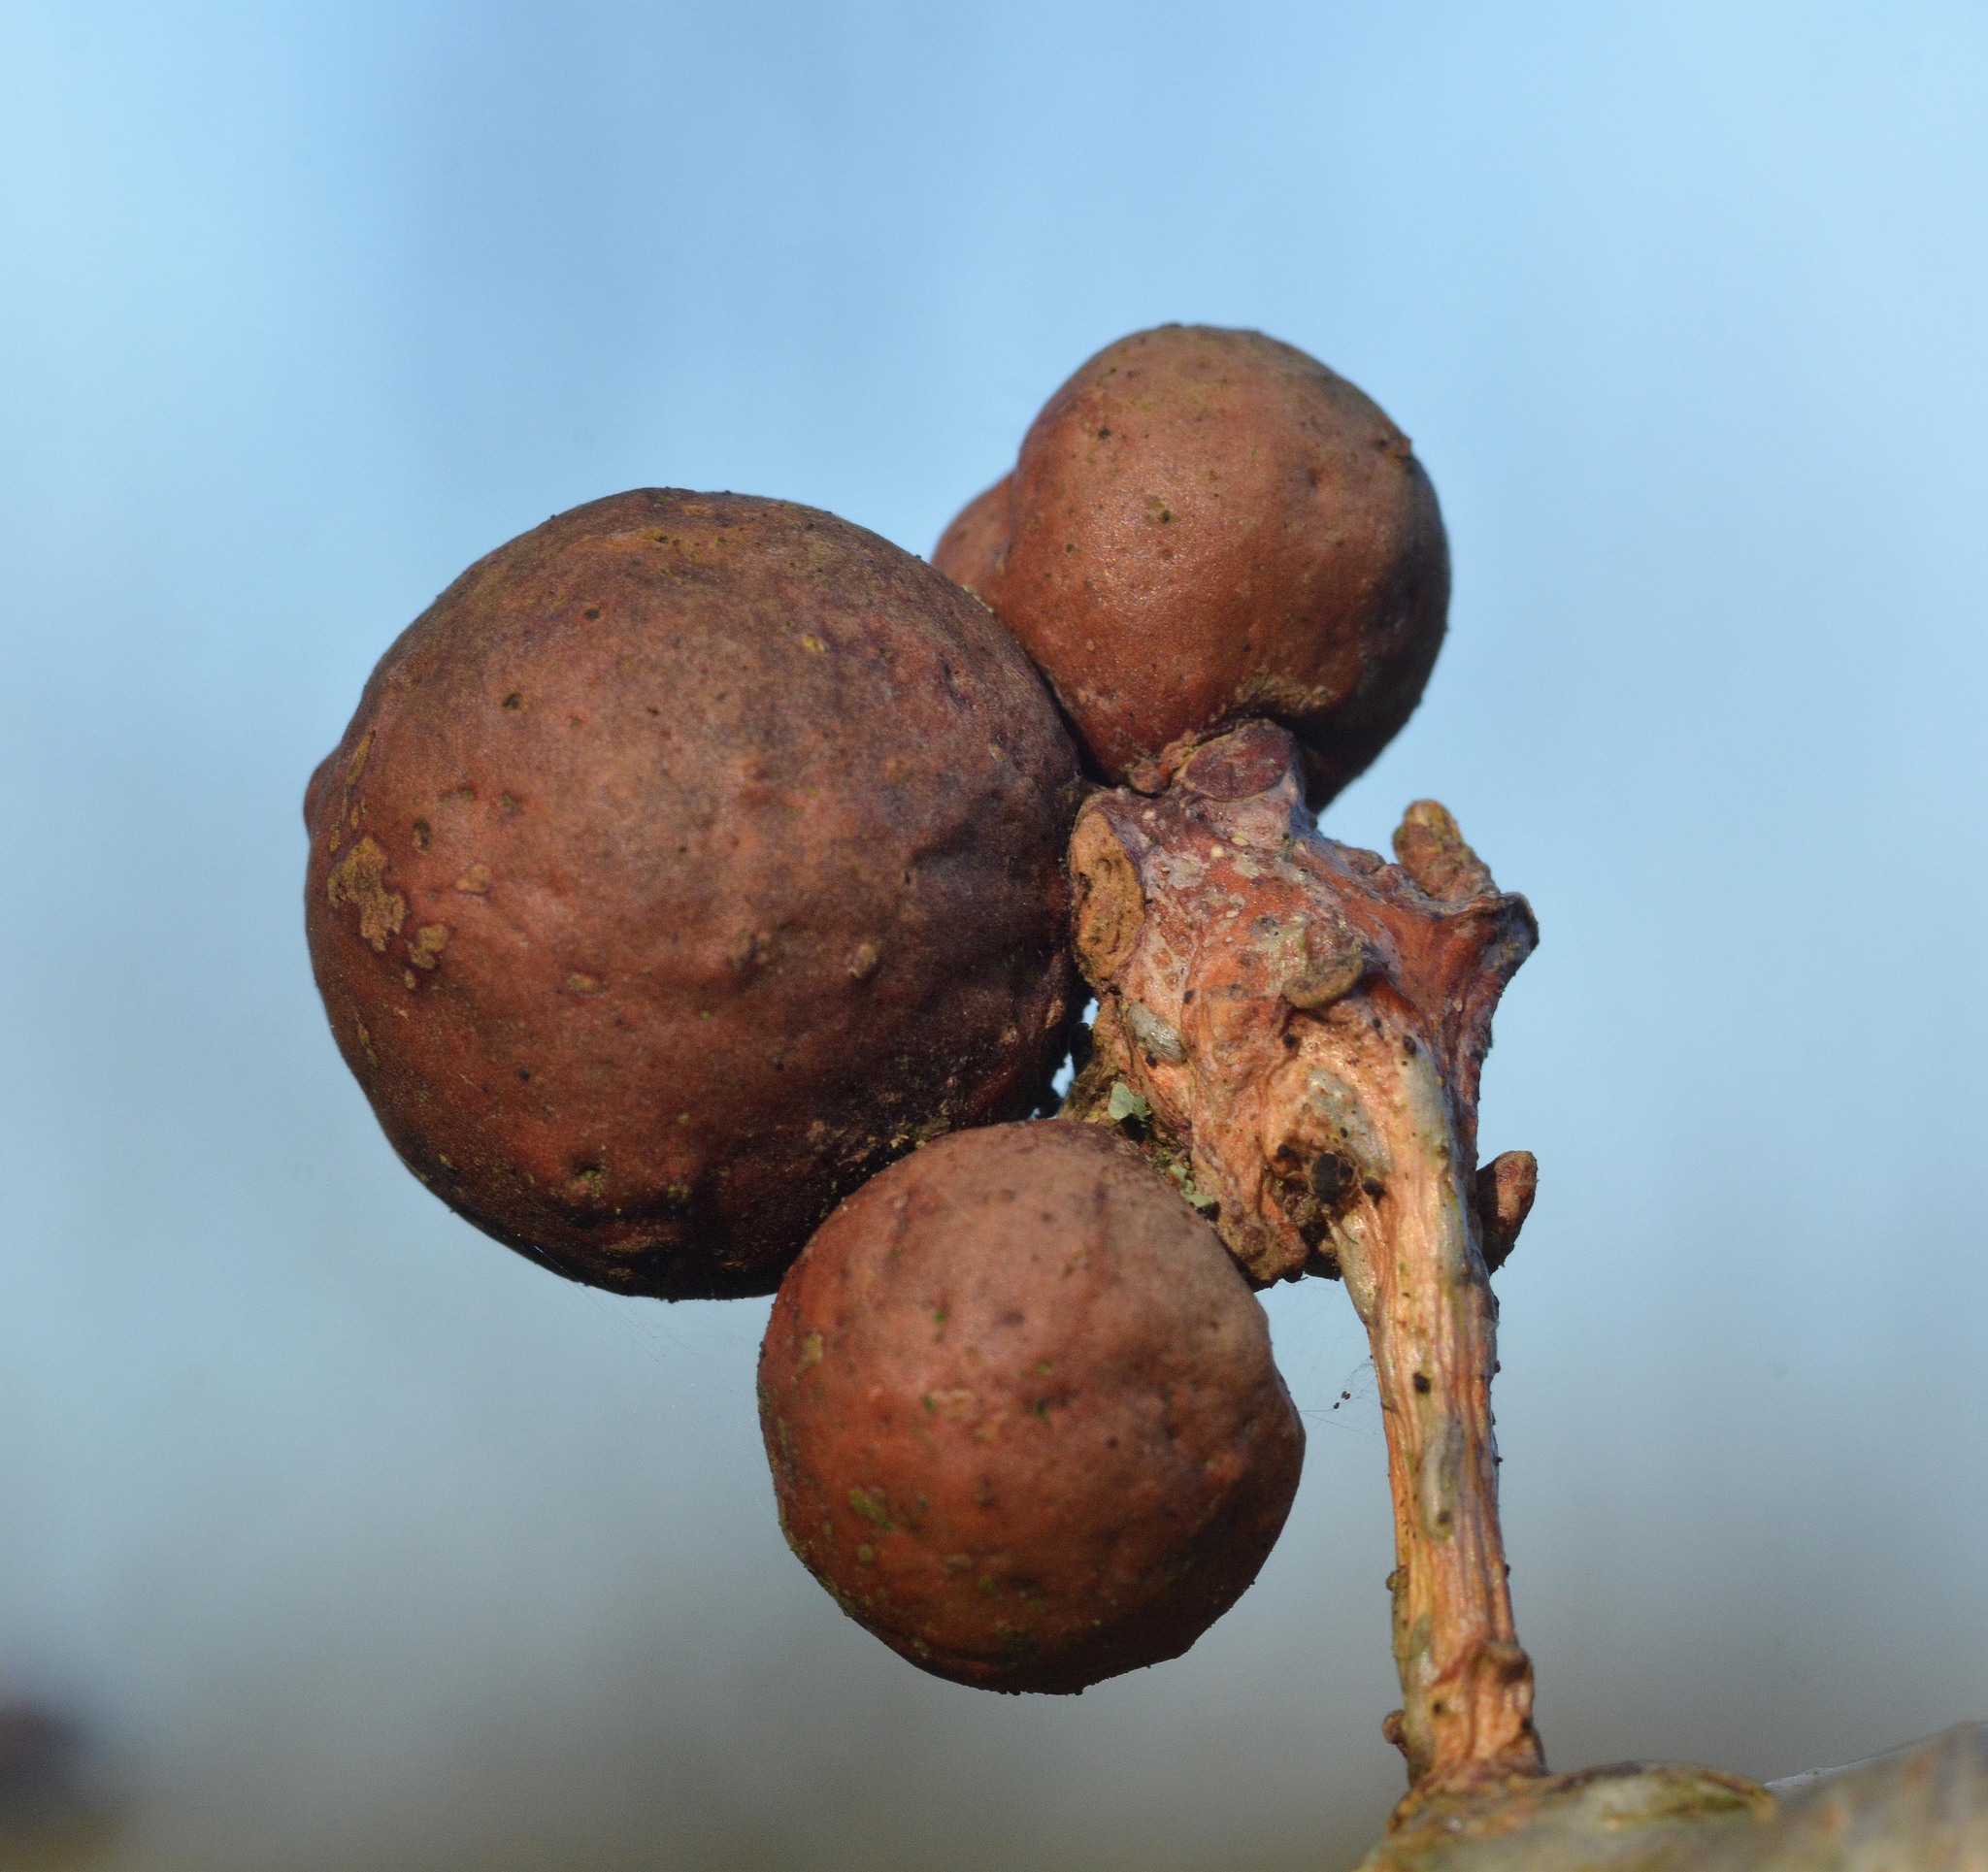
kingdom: Animalia
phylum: Arthropoda
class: Insecta
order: Hymenoptera
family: Cynipidae
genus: Andricus
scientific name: Andricus kollari
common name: Marble gall
